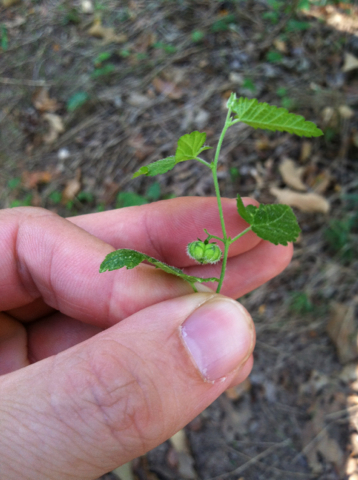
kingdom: Plantae
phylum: Tracheophyta
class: Magnoliopsida
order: Malpighiales
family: Euphorbiaceae
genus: Tragia
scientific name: Tragia ramosa
